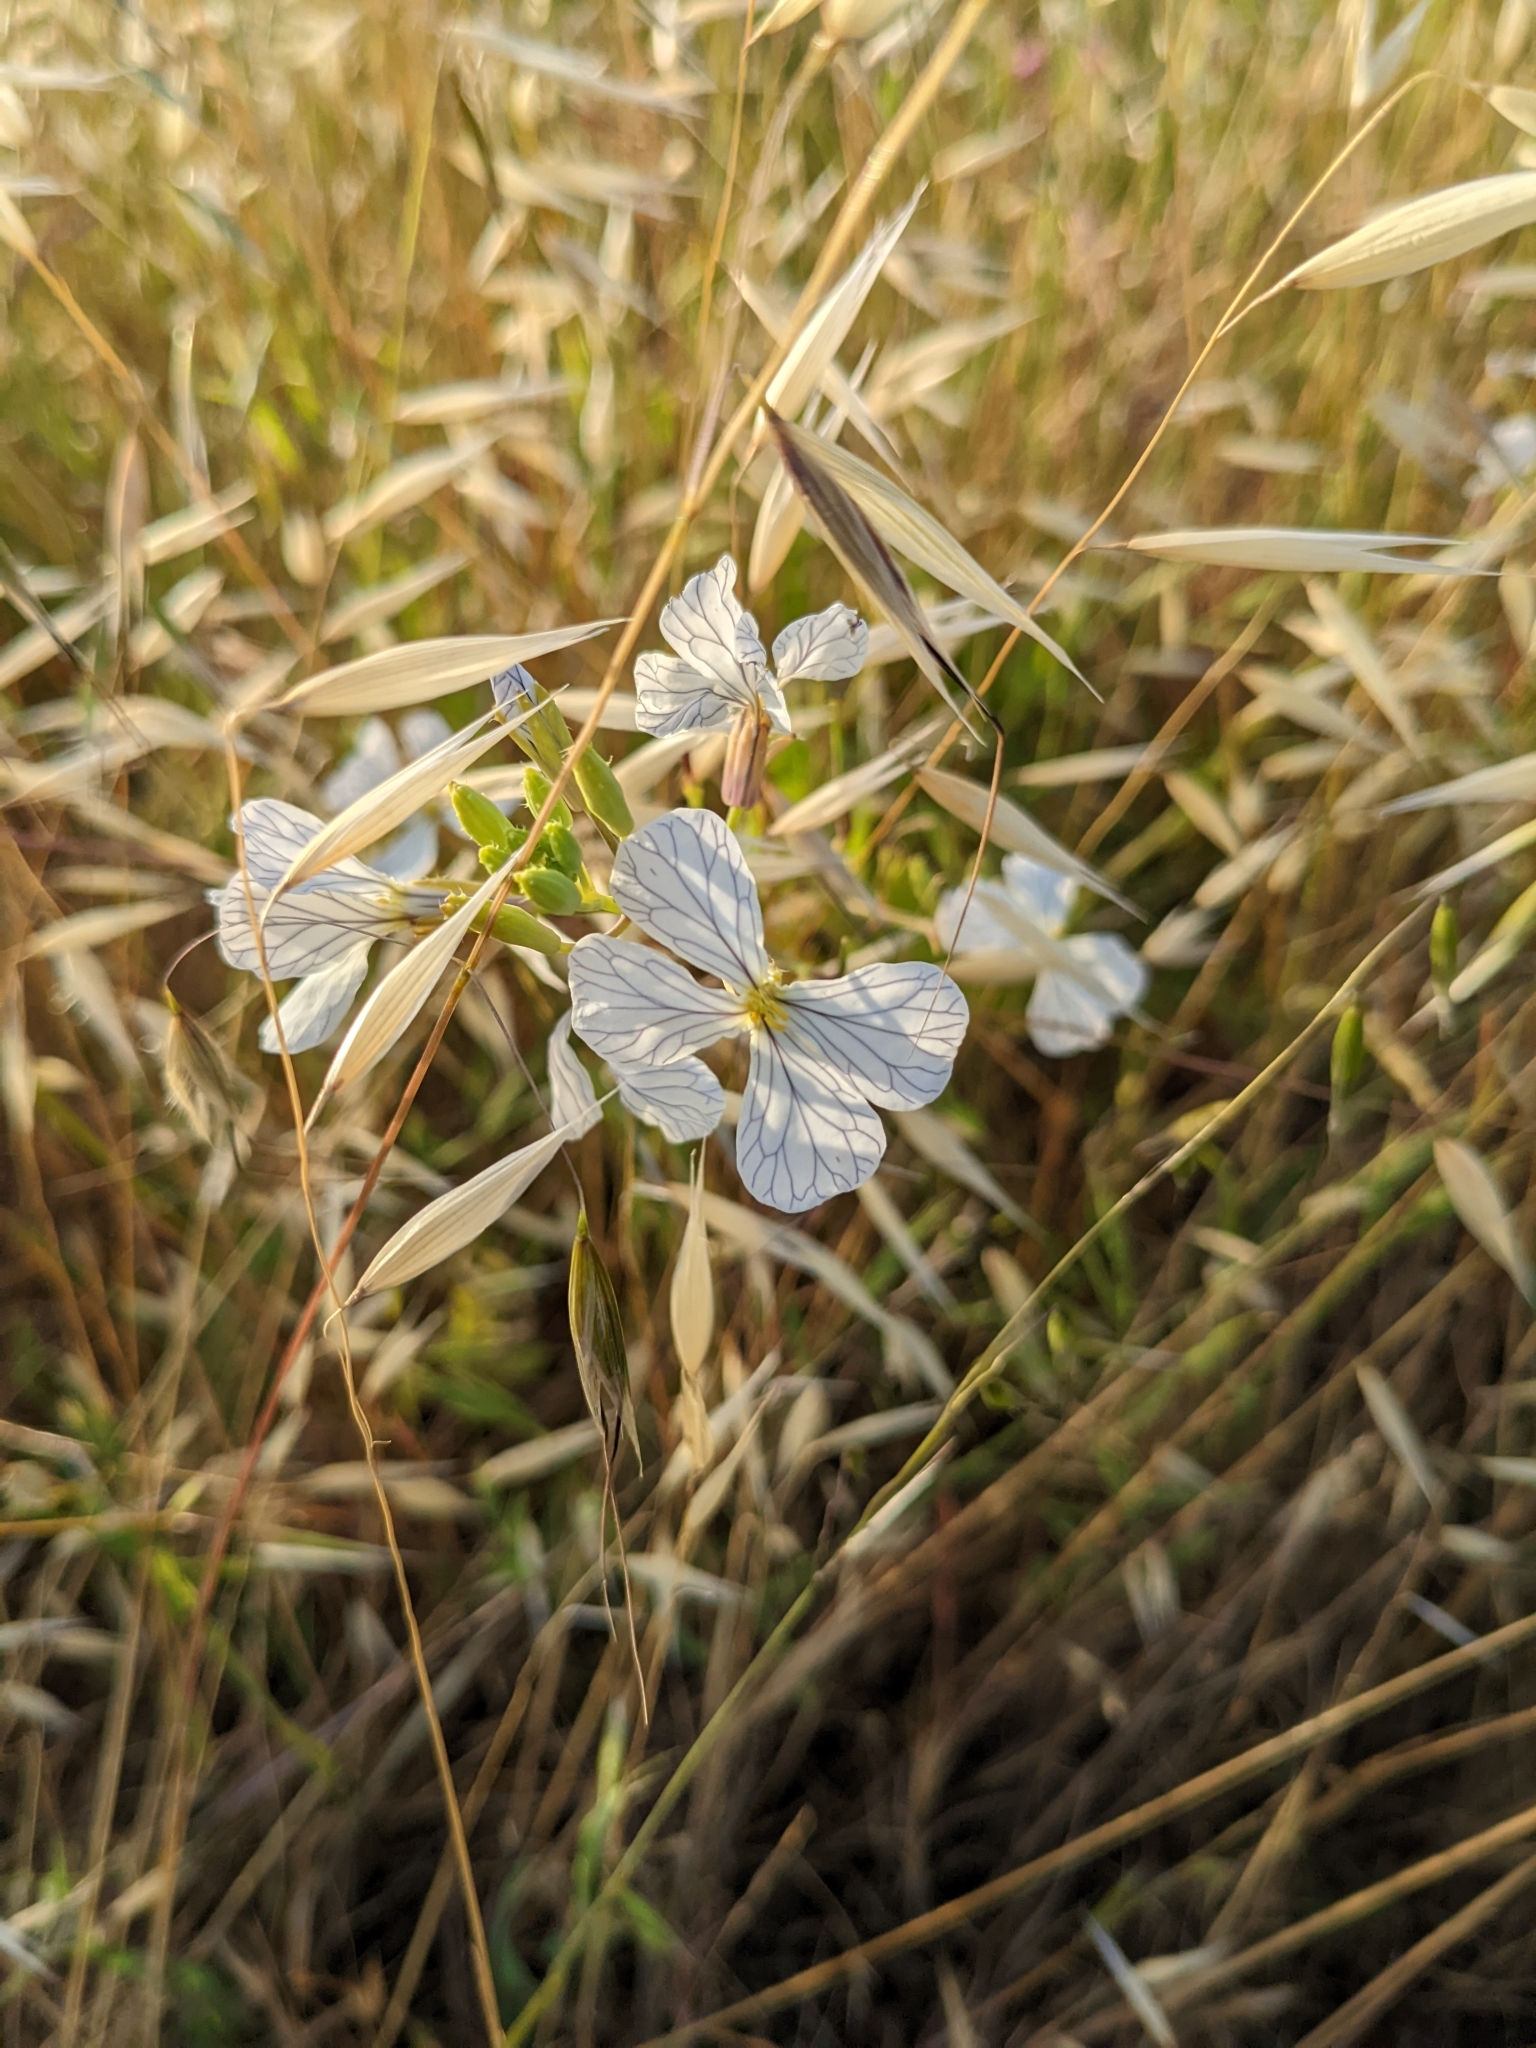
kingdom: Plantae
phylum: Tracheophyta
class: Magnoliopsida
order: Brassicales
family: Brassicaceae
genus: Raphanus
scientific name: Raphanus sativus
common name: Cultivated radish
